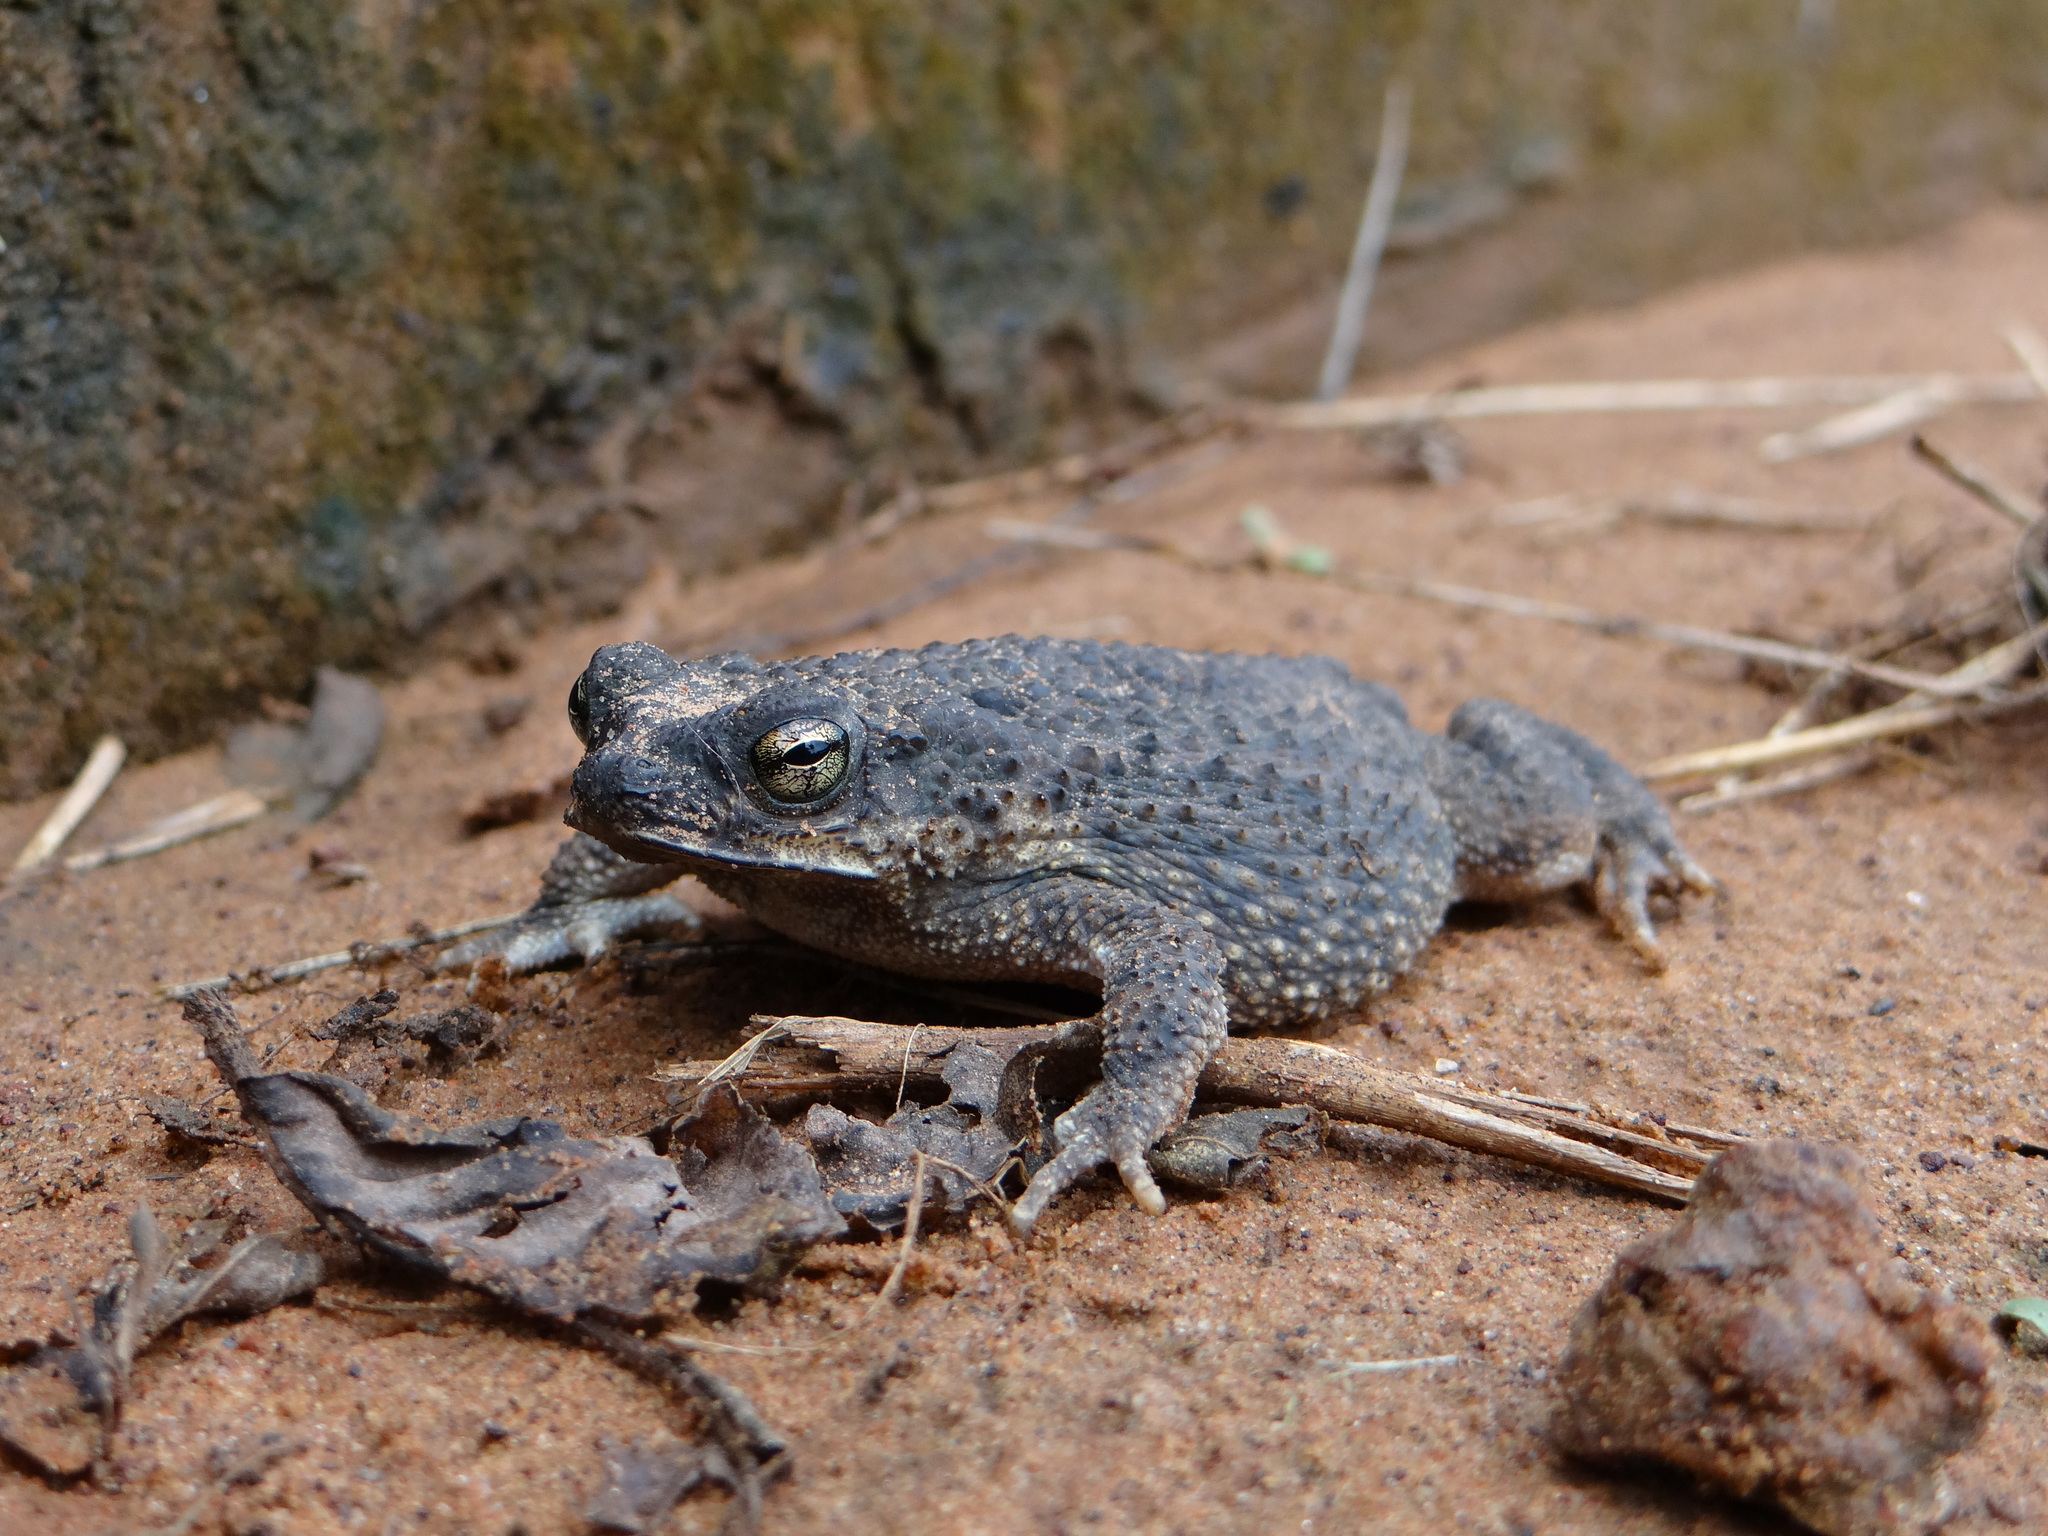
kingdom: Animalia
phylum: Chordata
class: Amphibia
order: Anura
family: Bufonidae
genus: Rhinella
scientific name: Rhinella major
